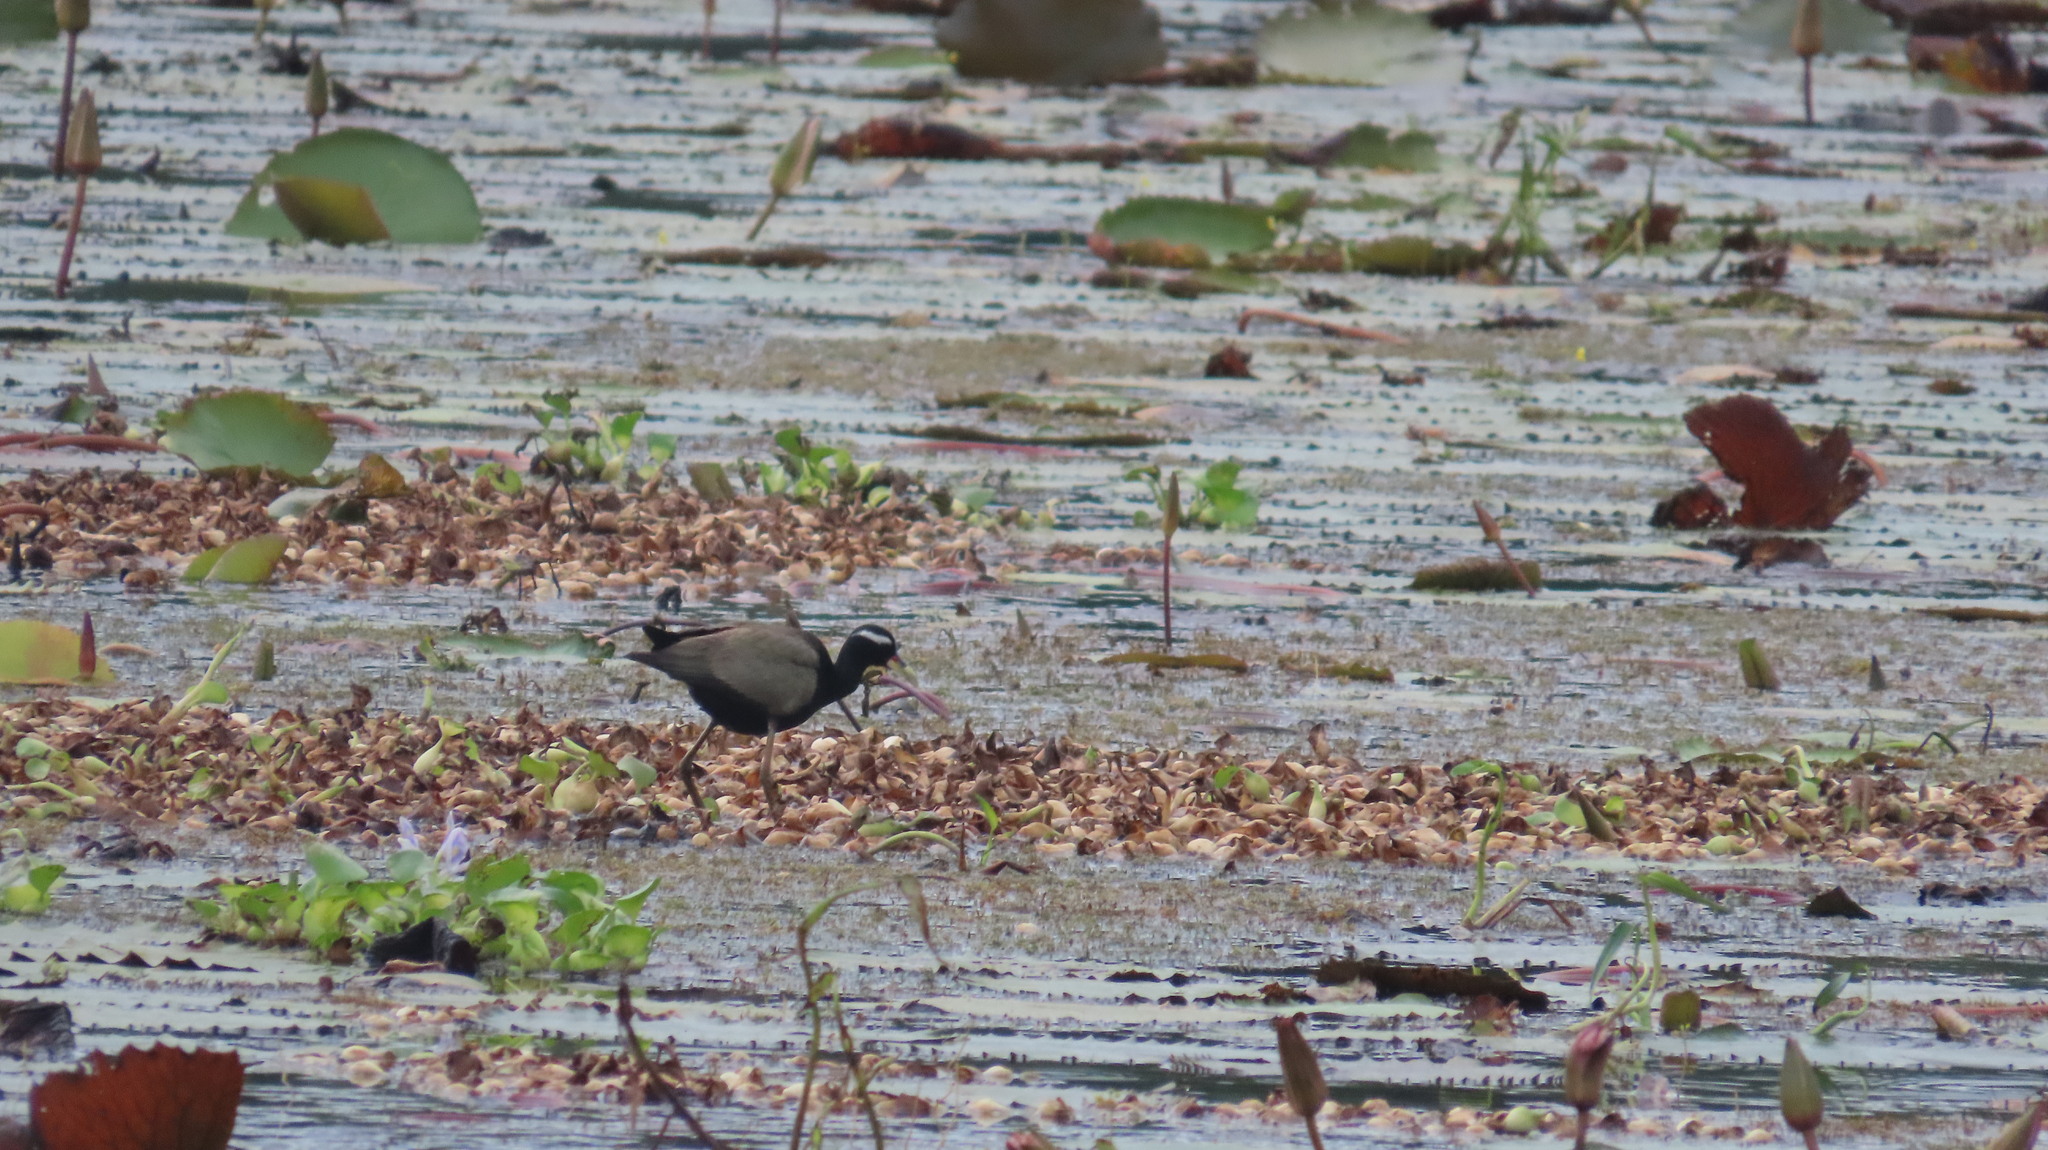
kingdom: Animalia
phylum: Chordata
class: Aves
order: Charadriiformes
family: Jacanidae
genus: Metopidius
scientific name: Metopidius indicus
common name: Bronze-winged jacana
